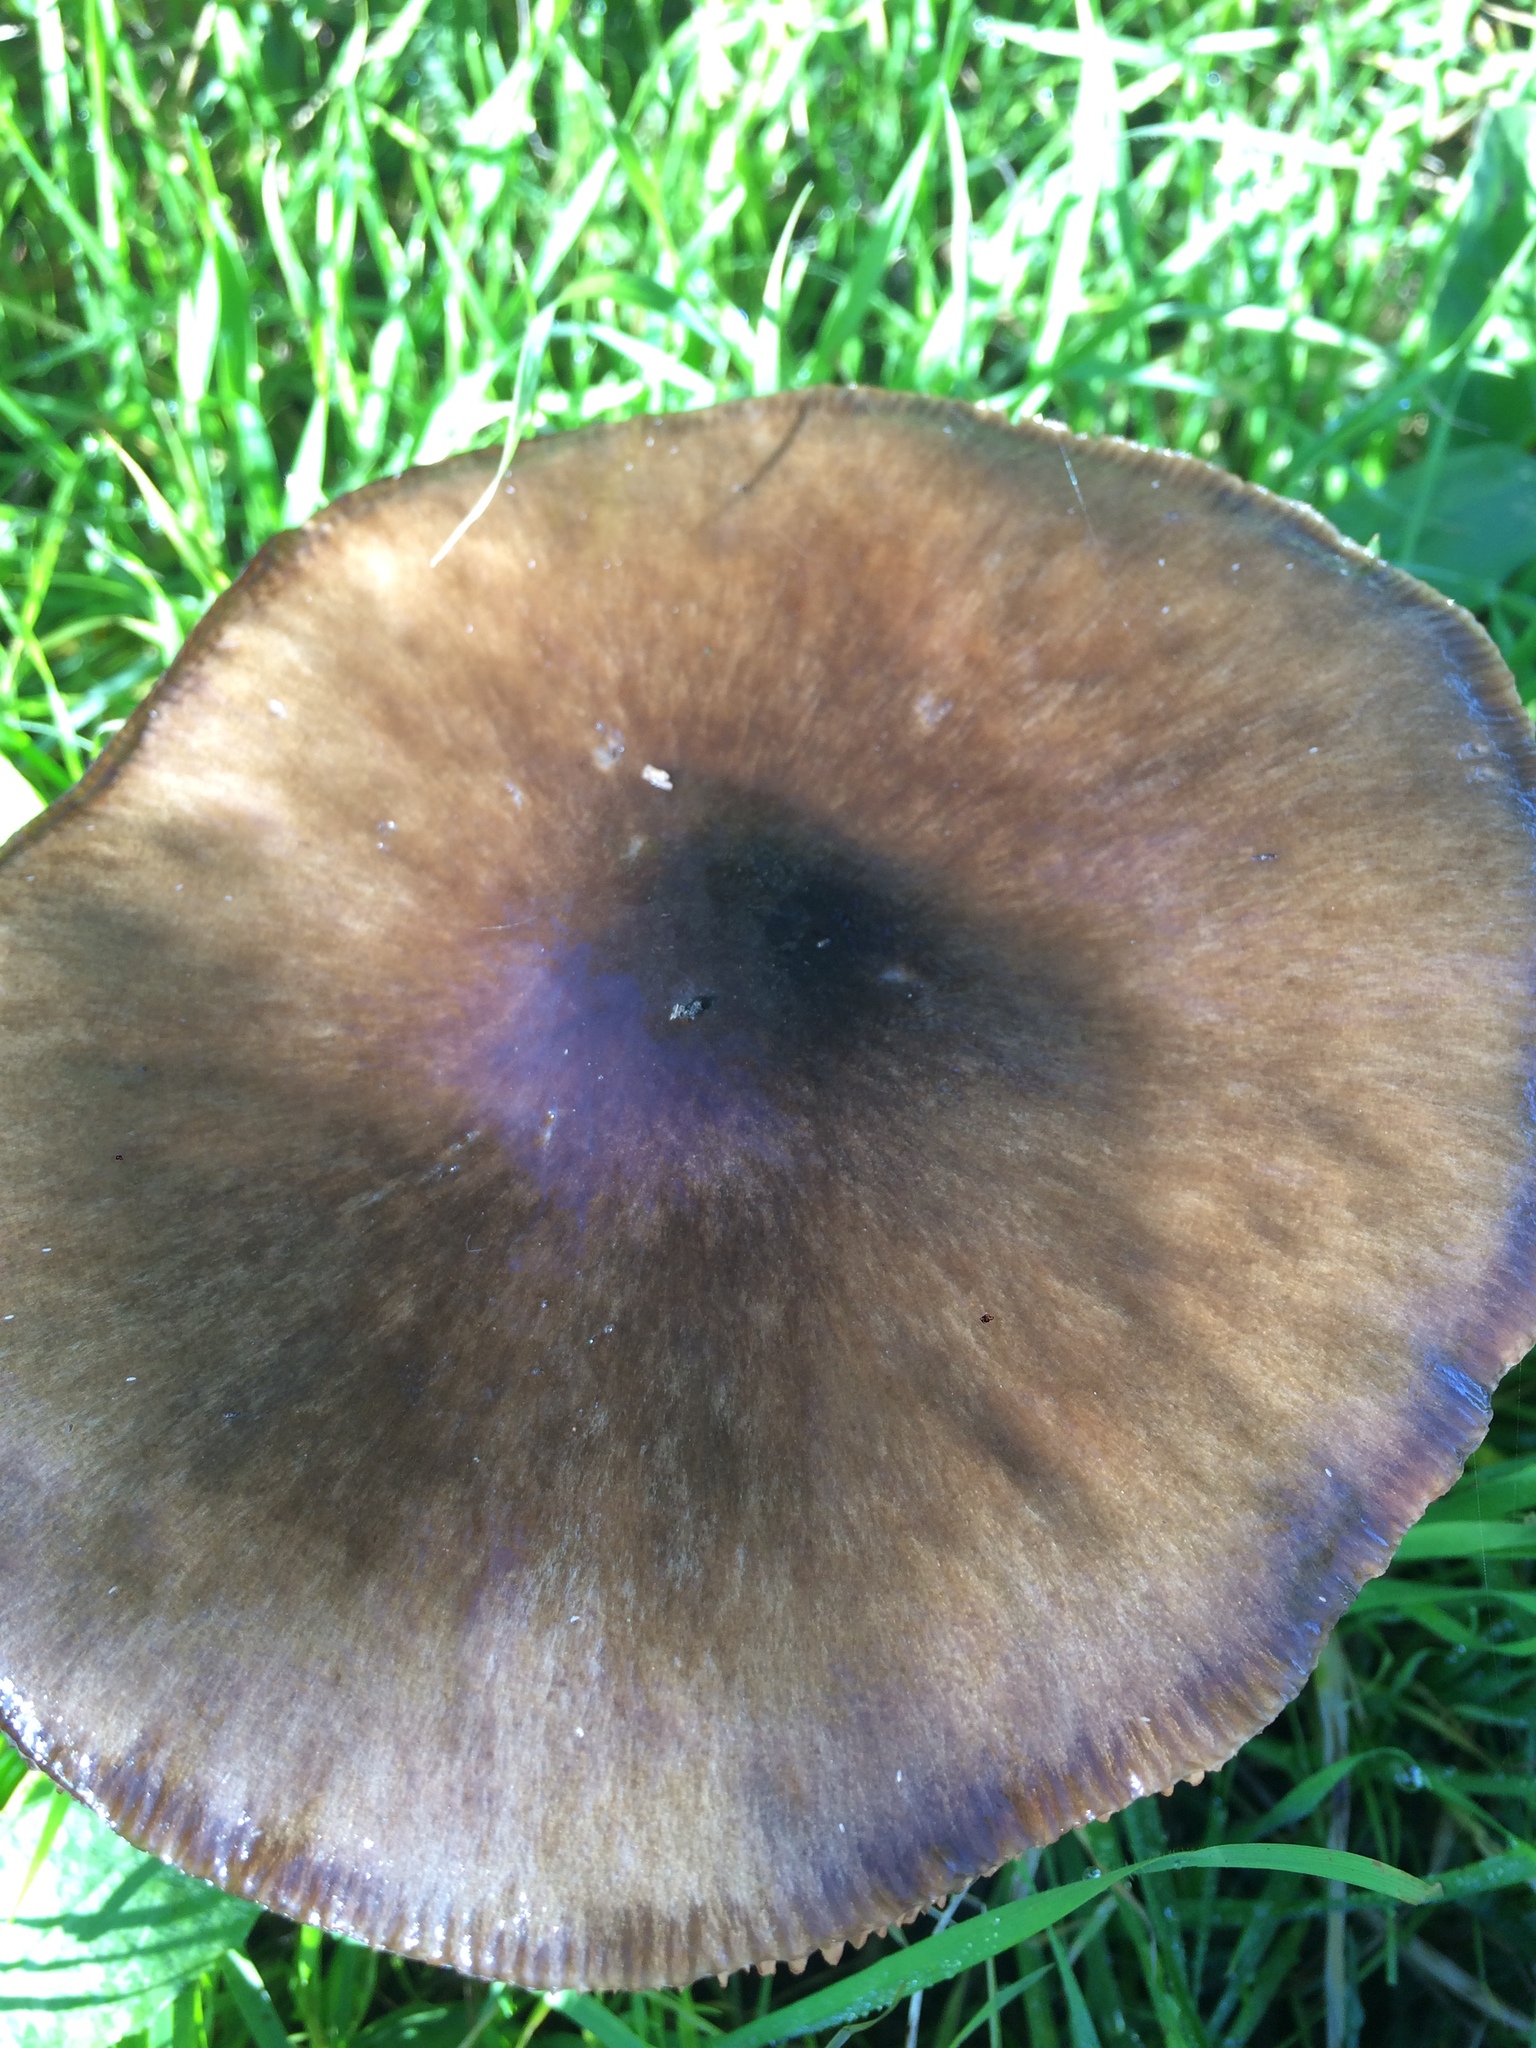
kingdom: Fungi
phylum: Basidiomycota
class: Agaricomycetes
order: Agaricales
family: Pluteaceae
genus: Volvopluteus
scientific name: Volvopluteus gloiocephalus
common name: Stubble rosegill
